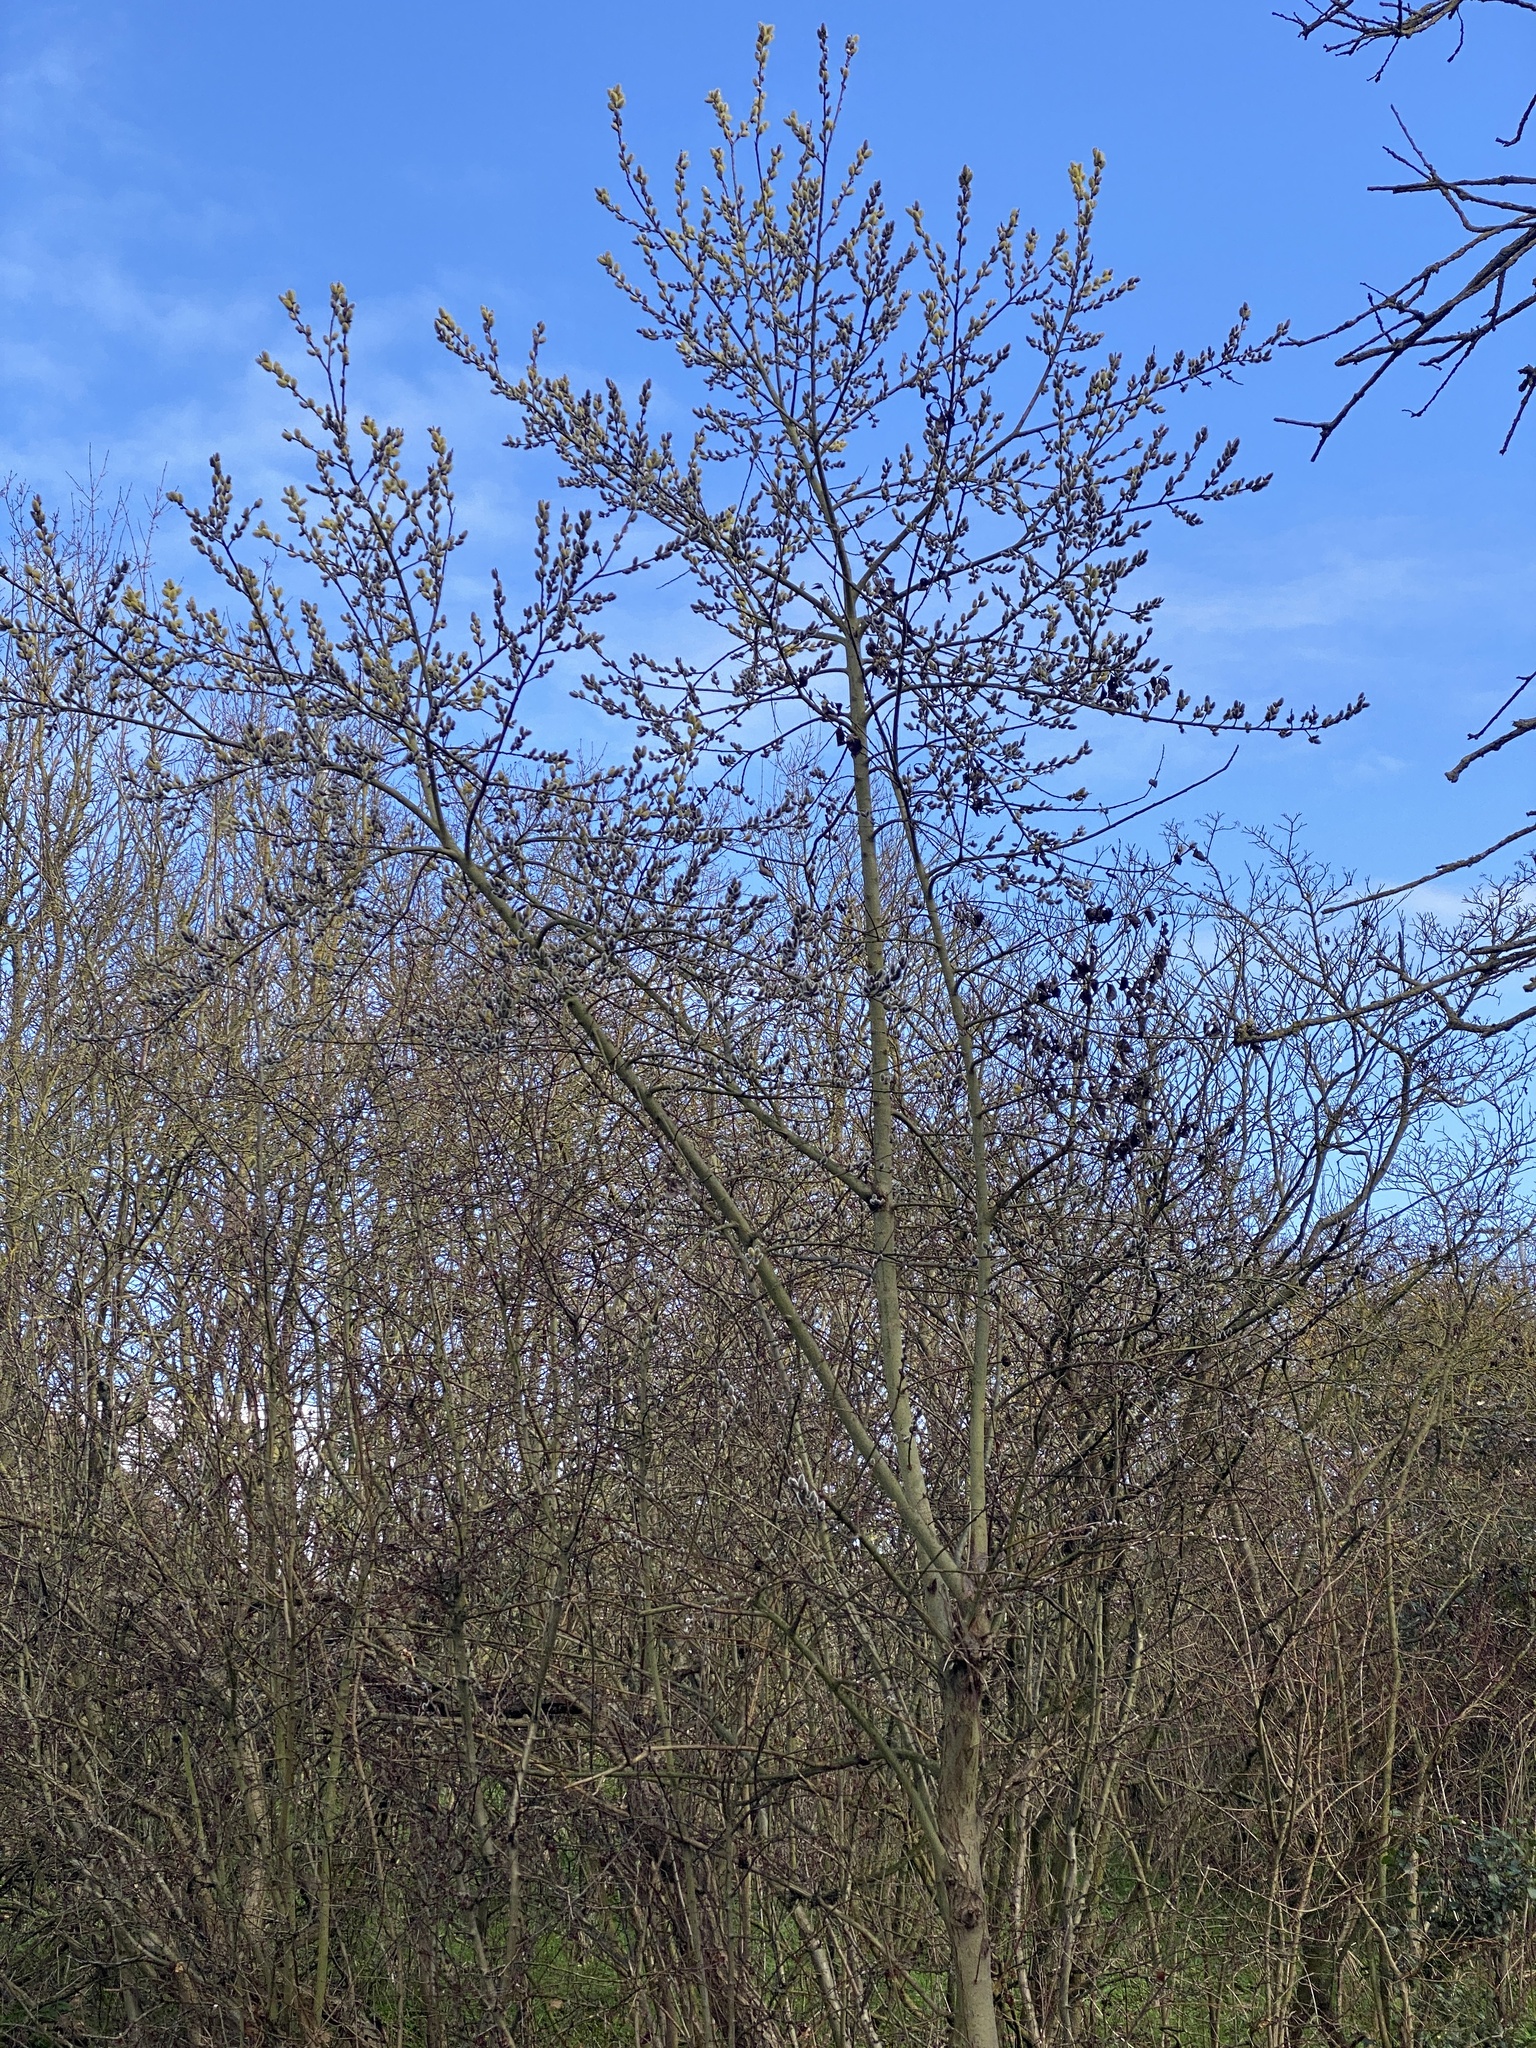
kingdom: Plantae
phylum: Tracheophyta
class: Magnoliopsida
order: Malpighiales
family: Salicaceae
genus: Salix
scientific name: Salix caprea
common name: Goat willow
